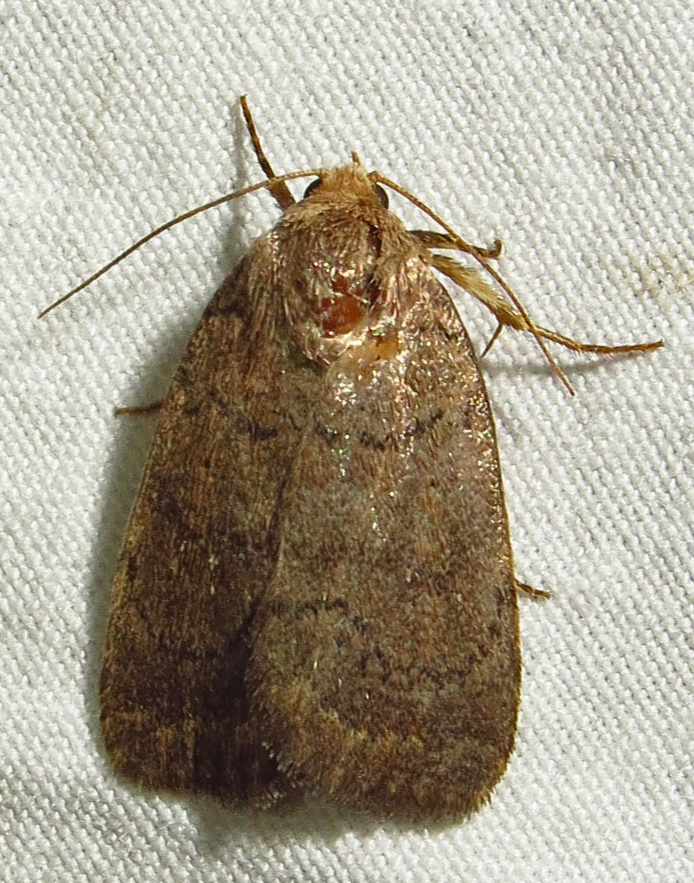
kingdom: Animalia
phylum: Arthropoda
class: Insecta
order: Lepidoptera
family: Noctuidae
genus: Athetis
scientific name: Athetis tarda
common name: Slowpoke moth
